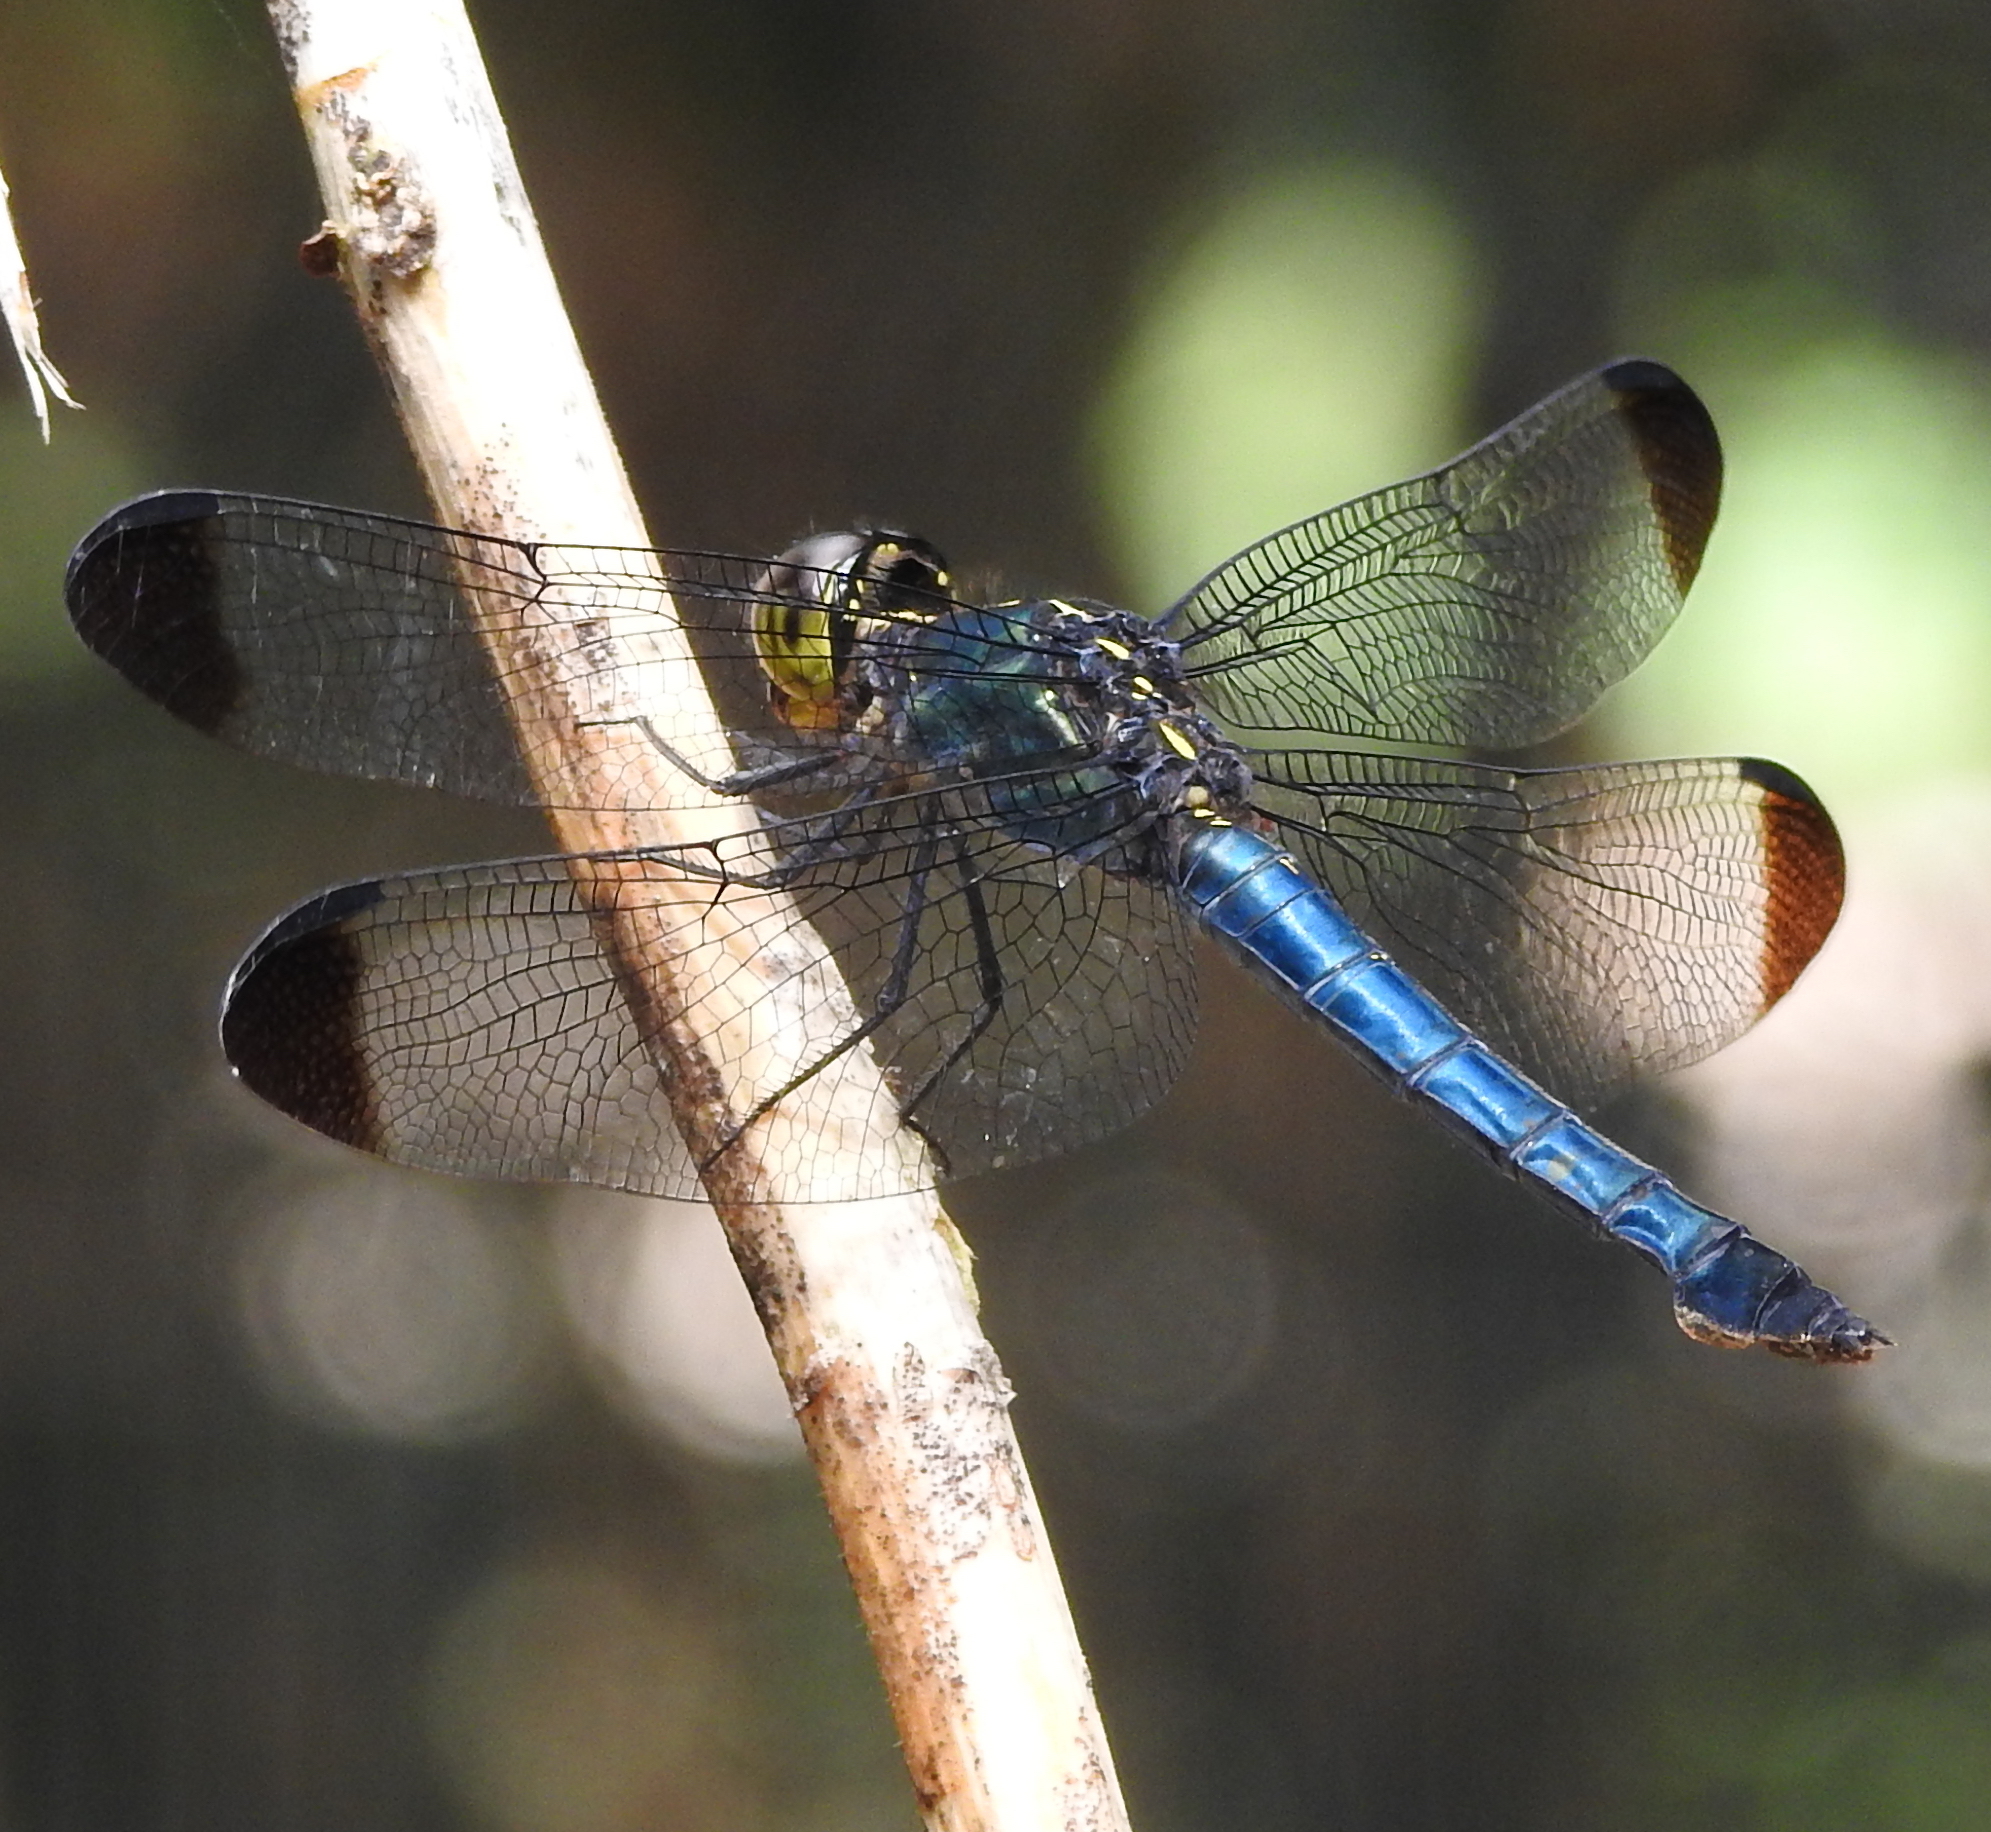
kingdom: Animalia
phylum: Arthropoda
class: Insecta
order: Odonata
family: Libellulidae
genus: Cratilla
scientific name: Cratilla metallica
